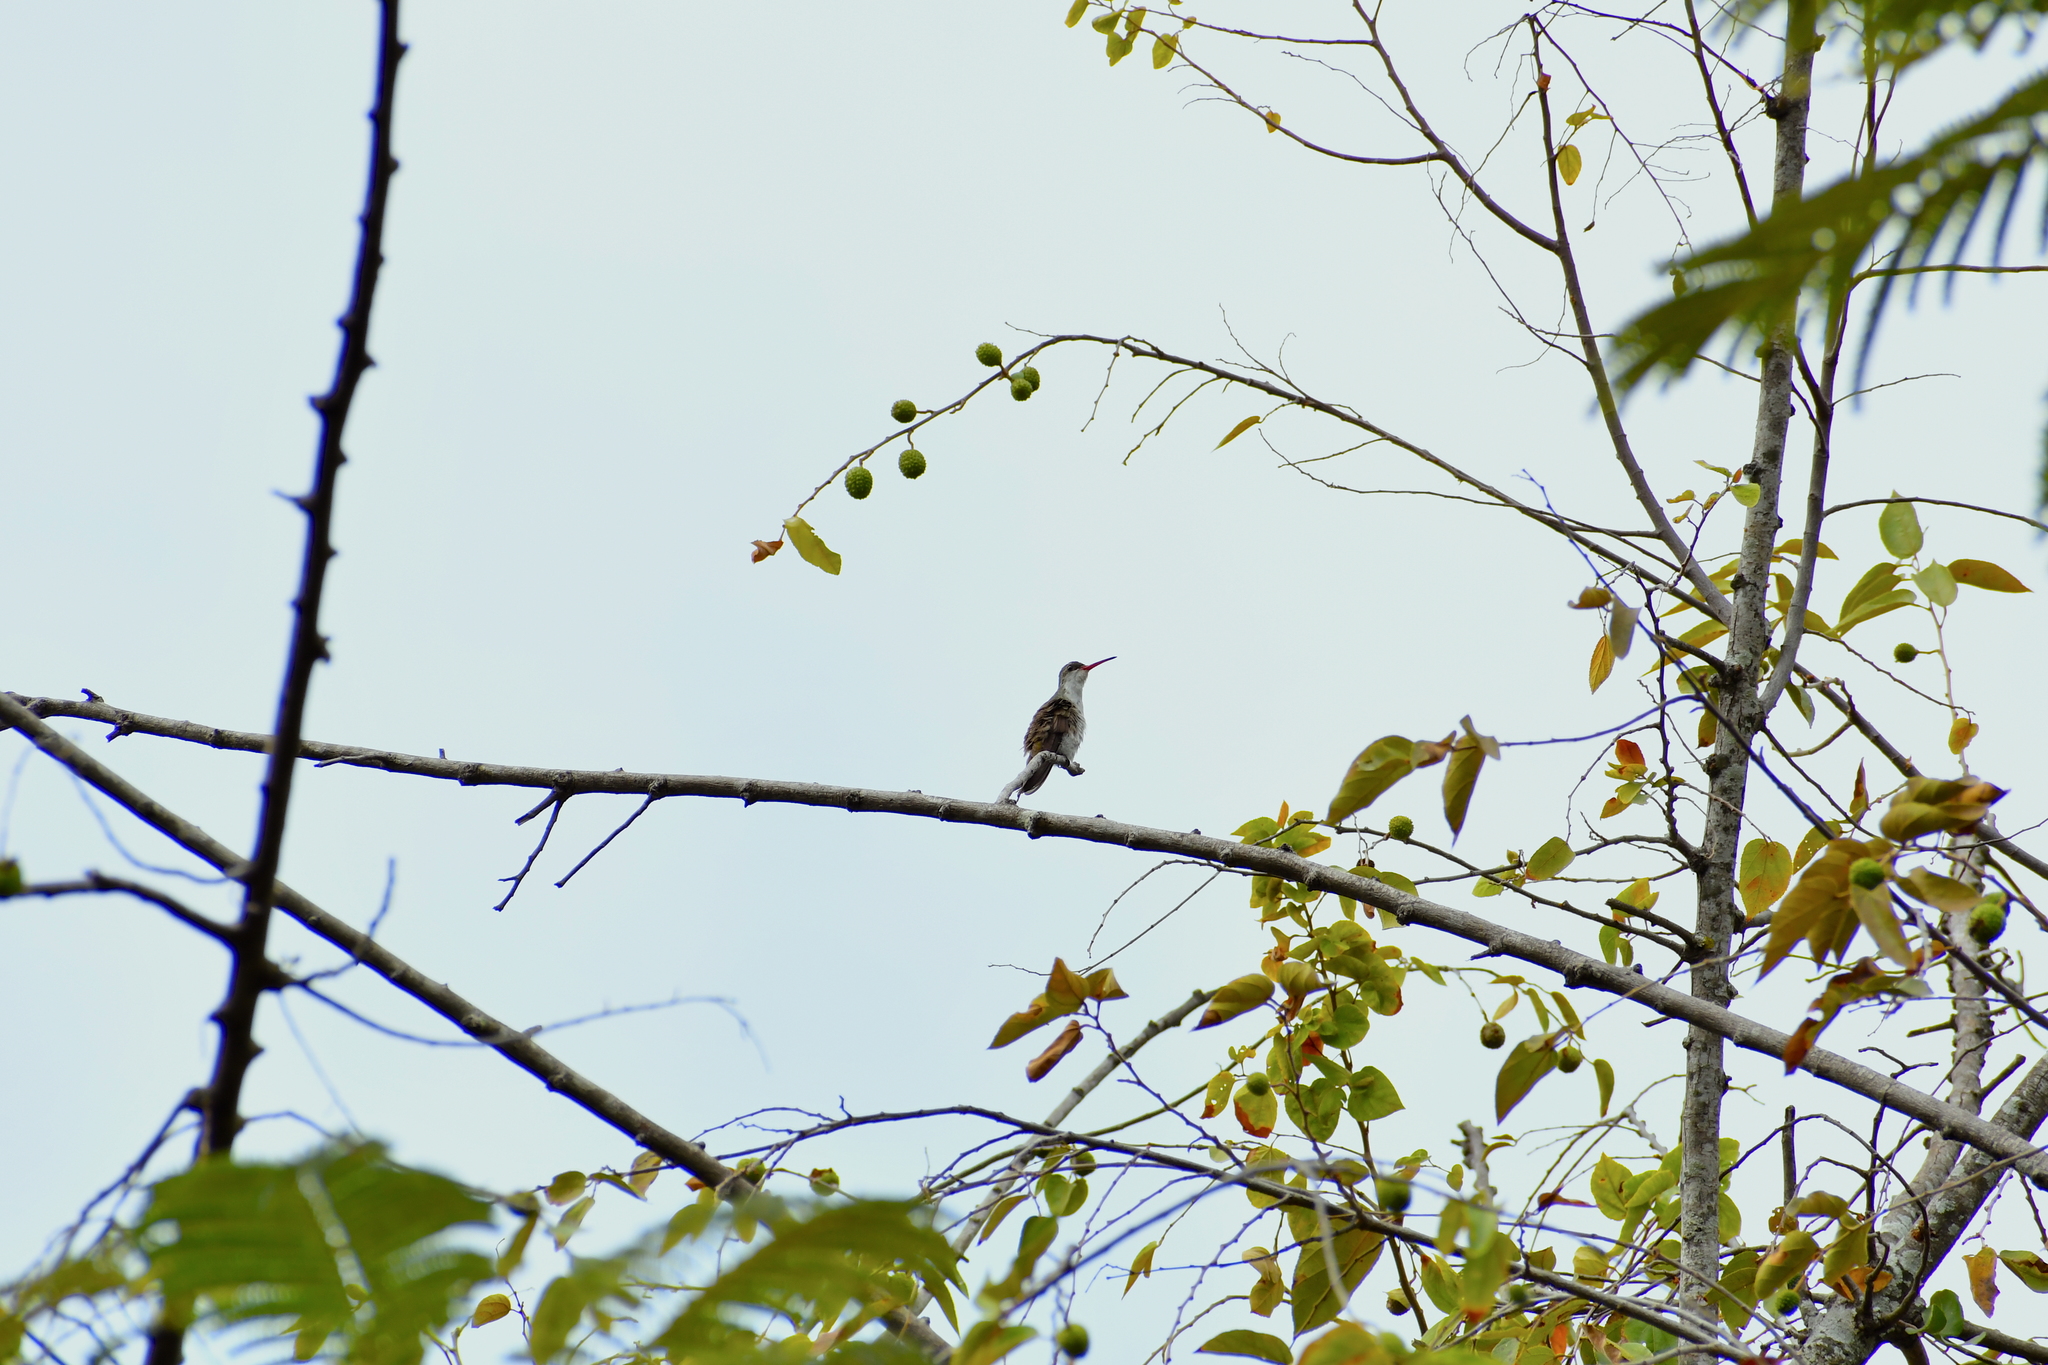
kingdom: Animalia
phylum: Chordata
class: Aves
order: Apodiformes
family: Trochilidae
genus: Leucolia
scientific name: Leucolia viridifrons
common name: Green-fronted hummingbird
